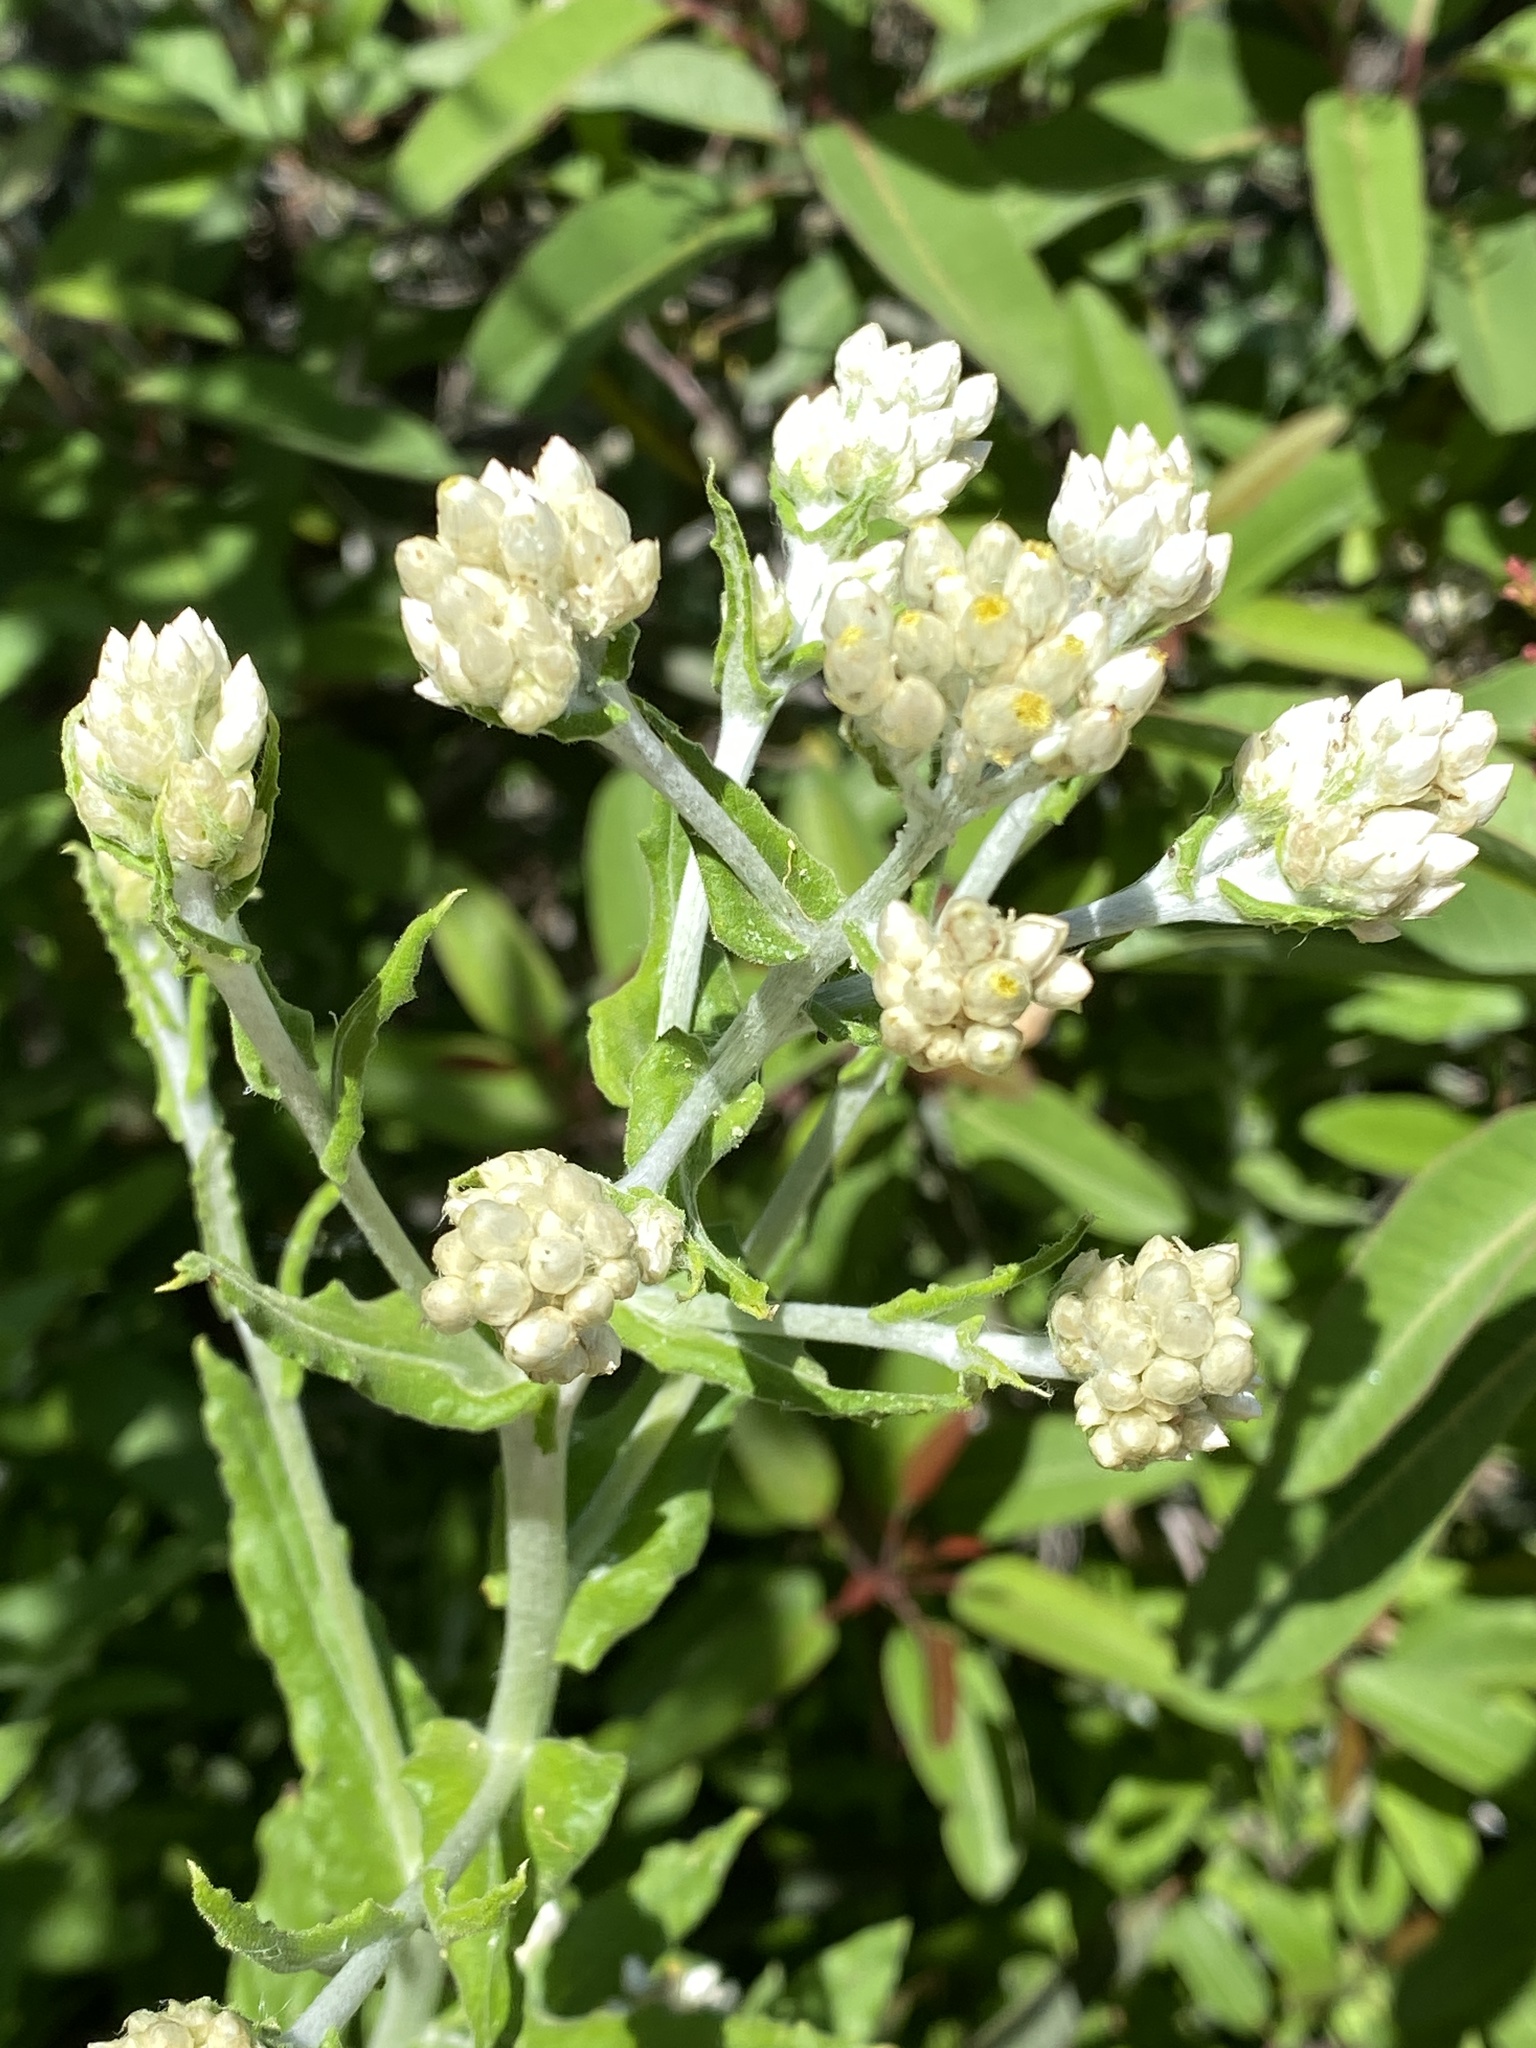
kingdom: Plantae
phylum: Tracheophyta
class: Magnoliopsida
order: Asterales
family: Asteraceae
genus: Pseudognaphalium
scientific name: Pseudognaphalium biolettii
